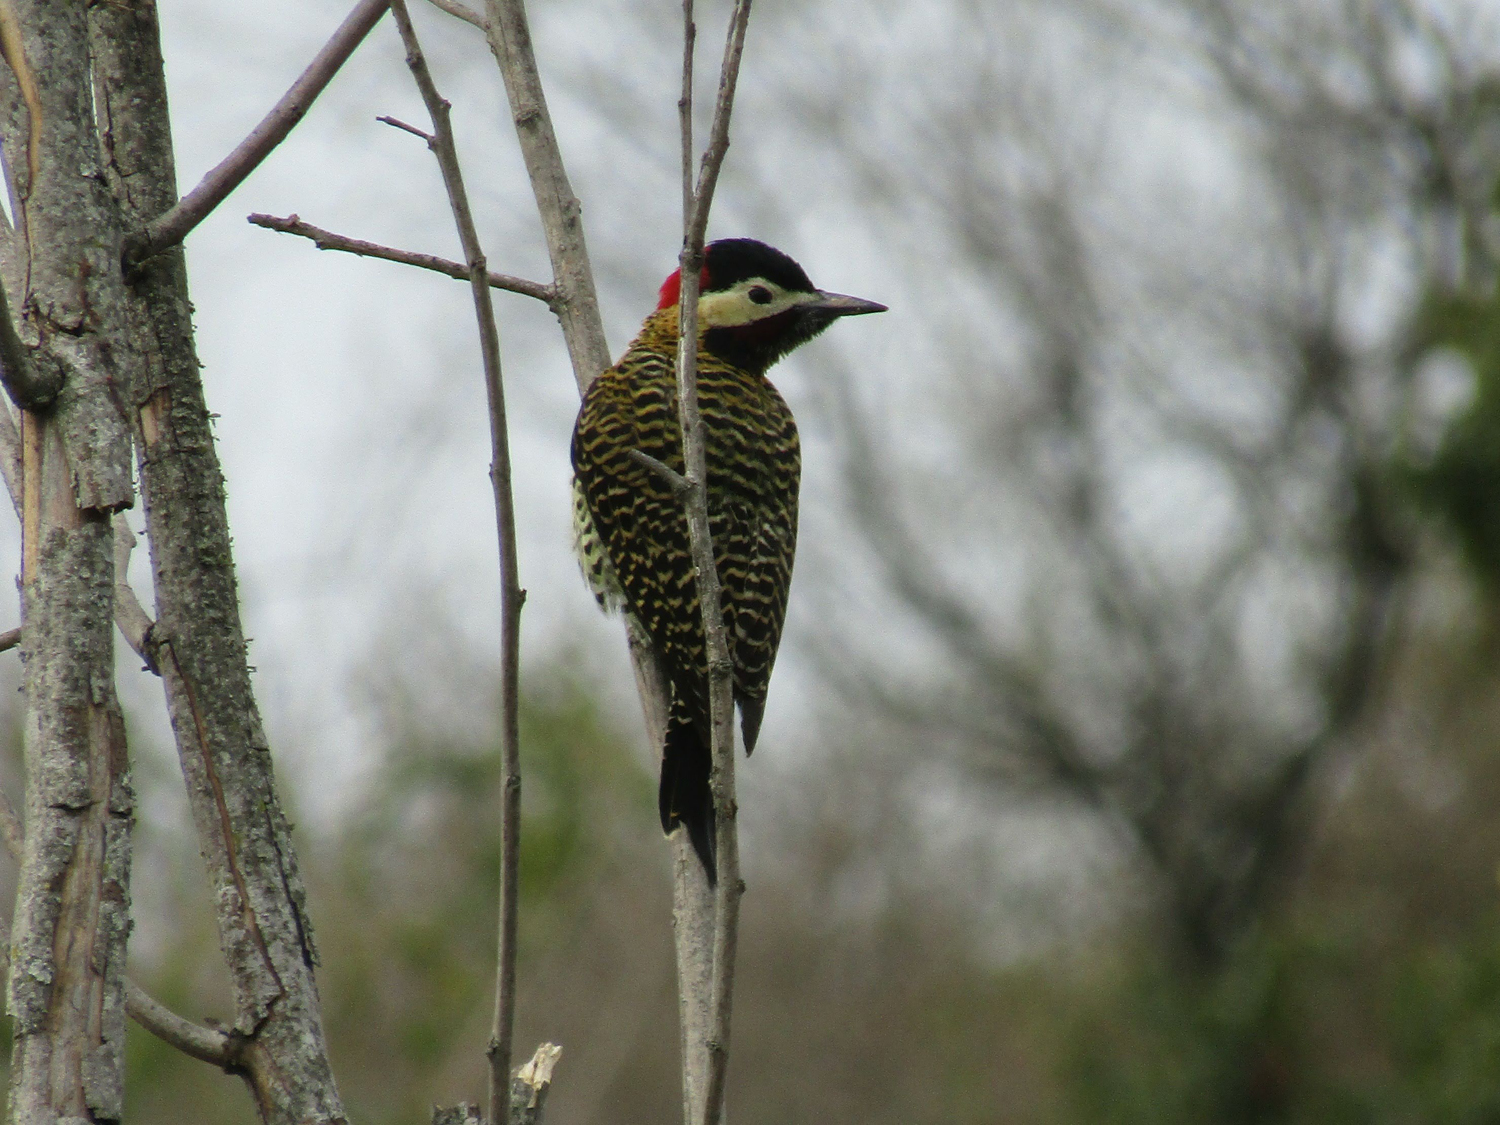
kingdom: Animalia
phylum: Chordata
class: Aves
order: Piciformes
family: Picidae
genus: Colaptes
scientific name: Colaptes melanochloros
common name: Green-barred woodpecker
